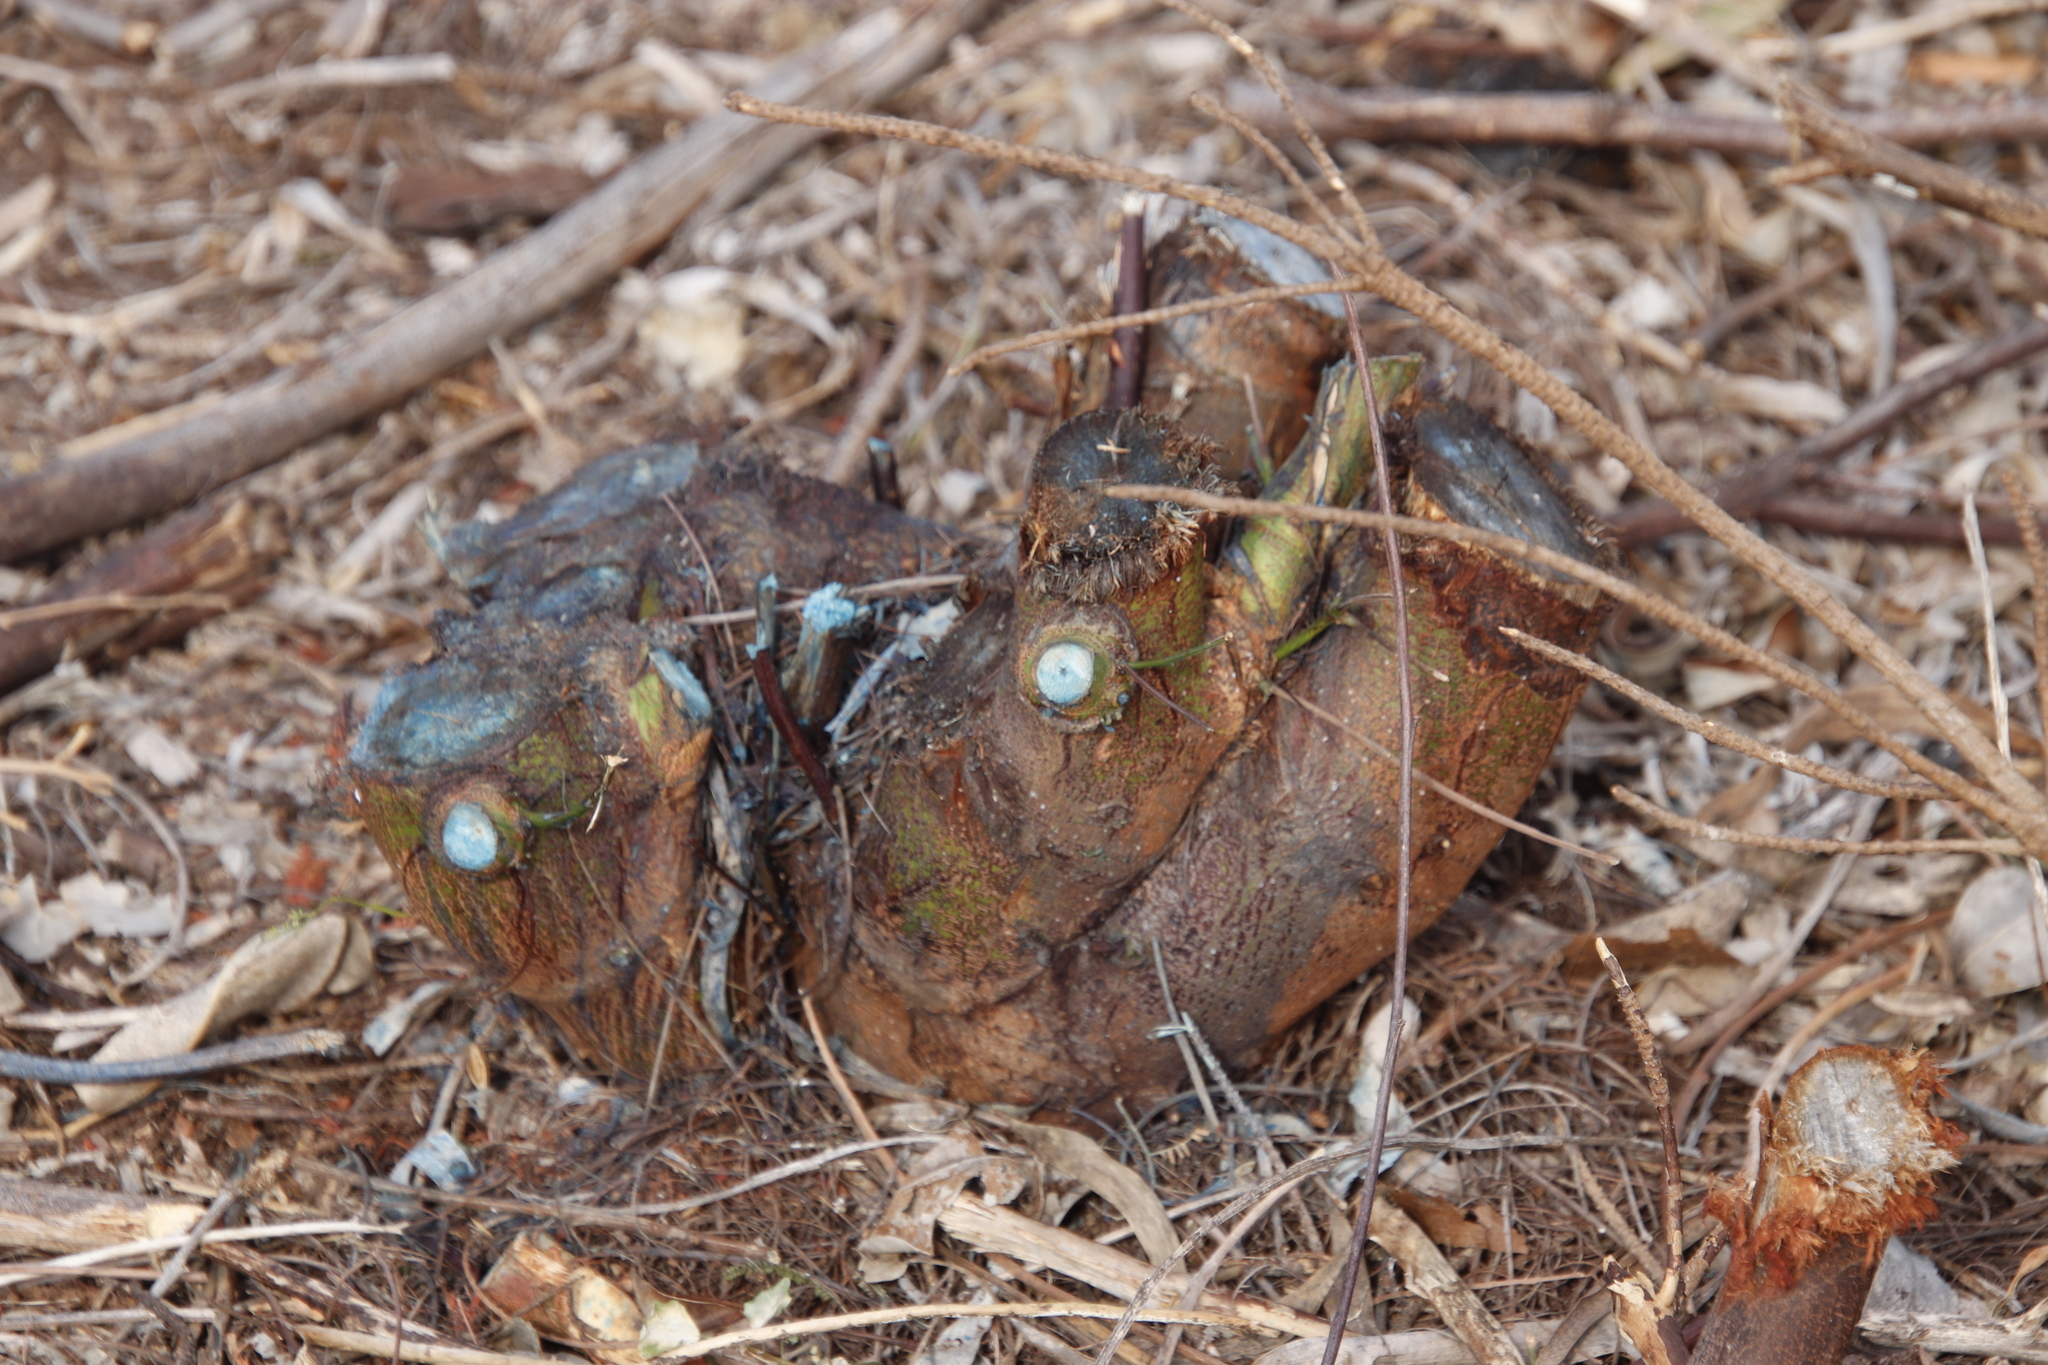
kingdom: Plantae
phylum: Tracheophyta
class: Magnoliopsida
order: Fabales
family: Fabaceae
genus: Acacia
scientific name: Acacia mearnsii
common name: Black wattle
